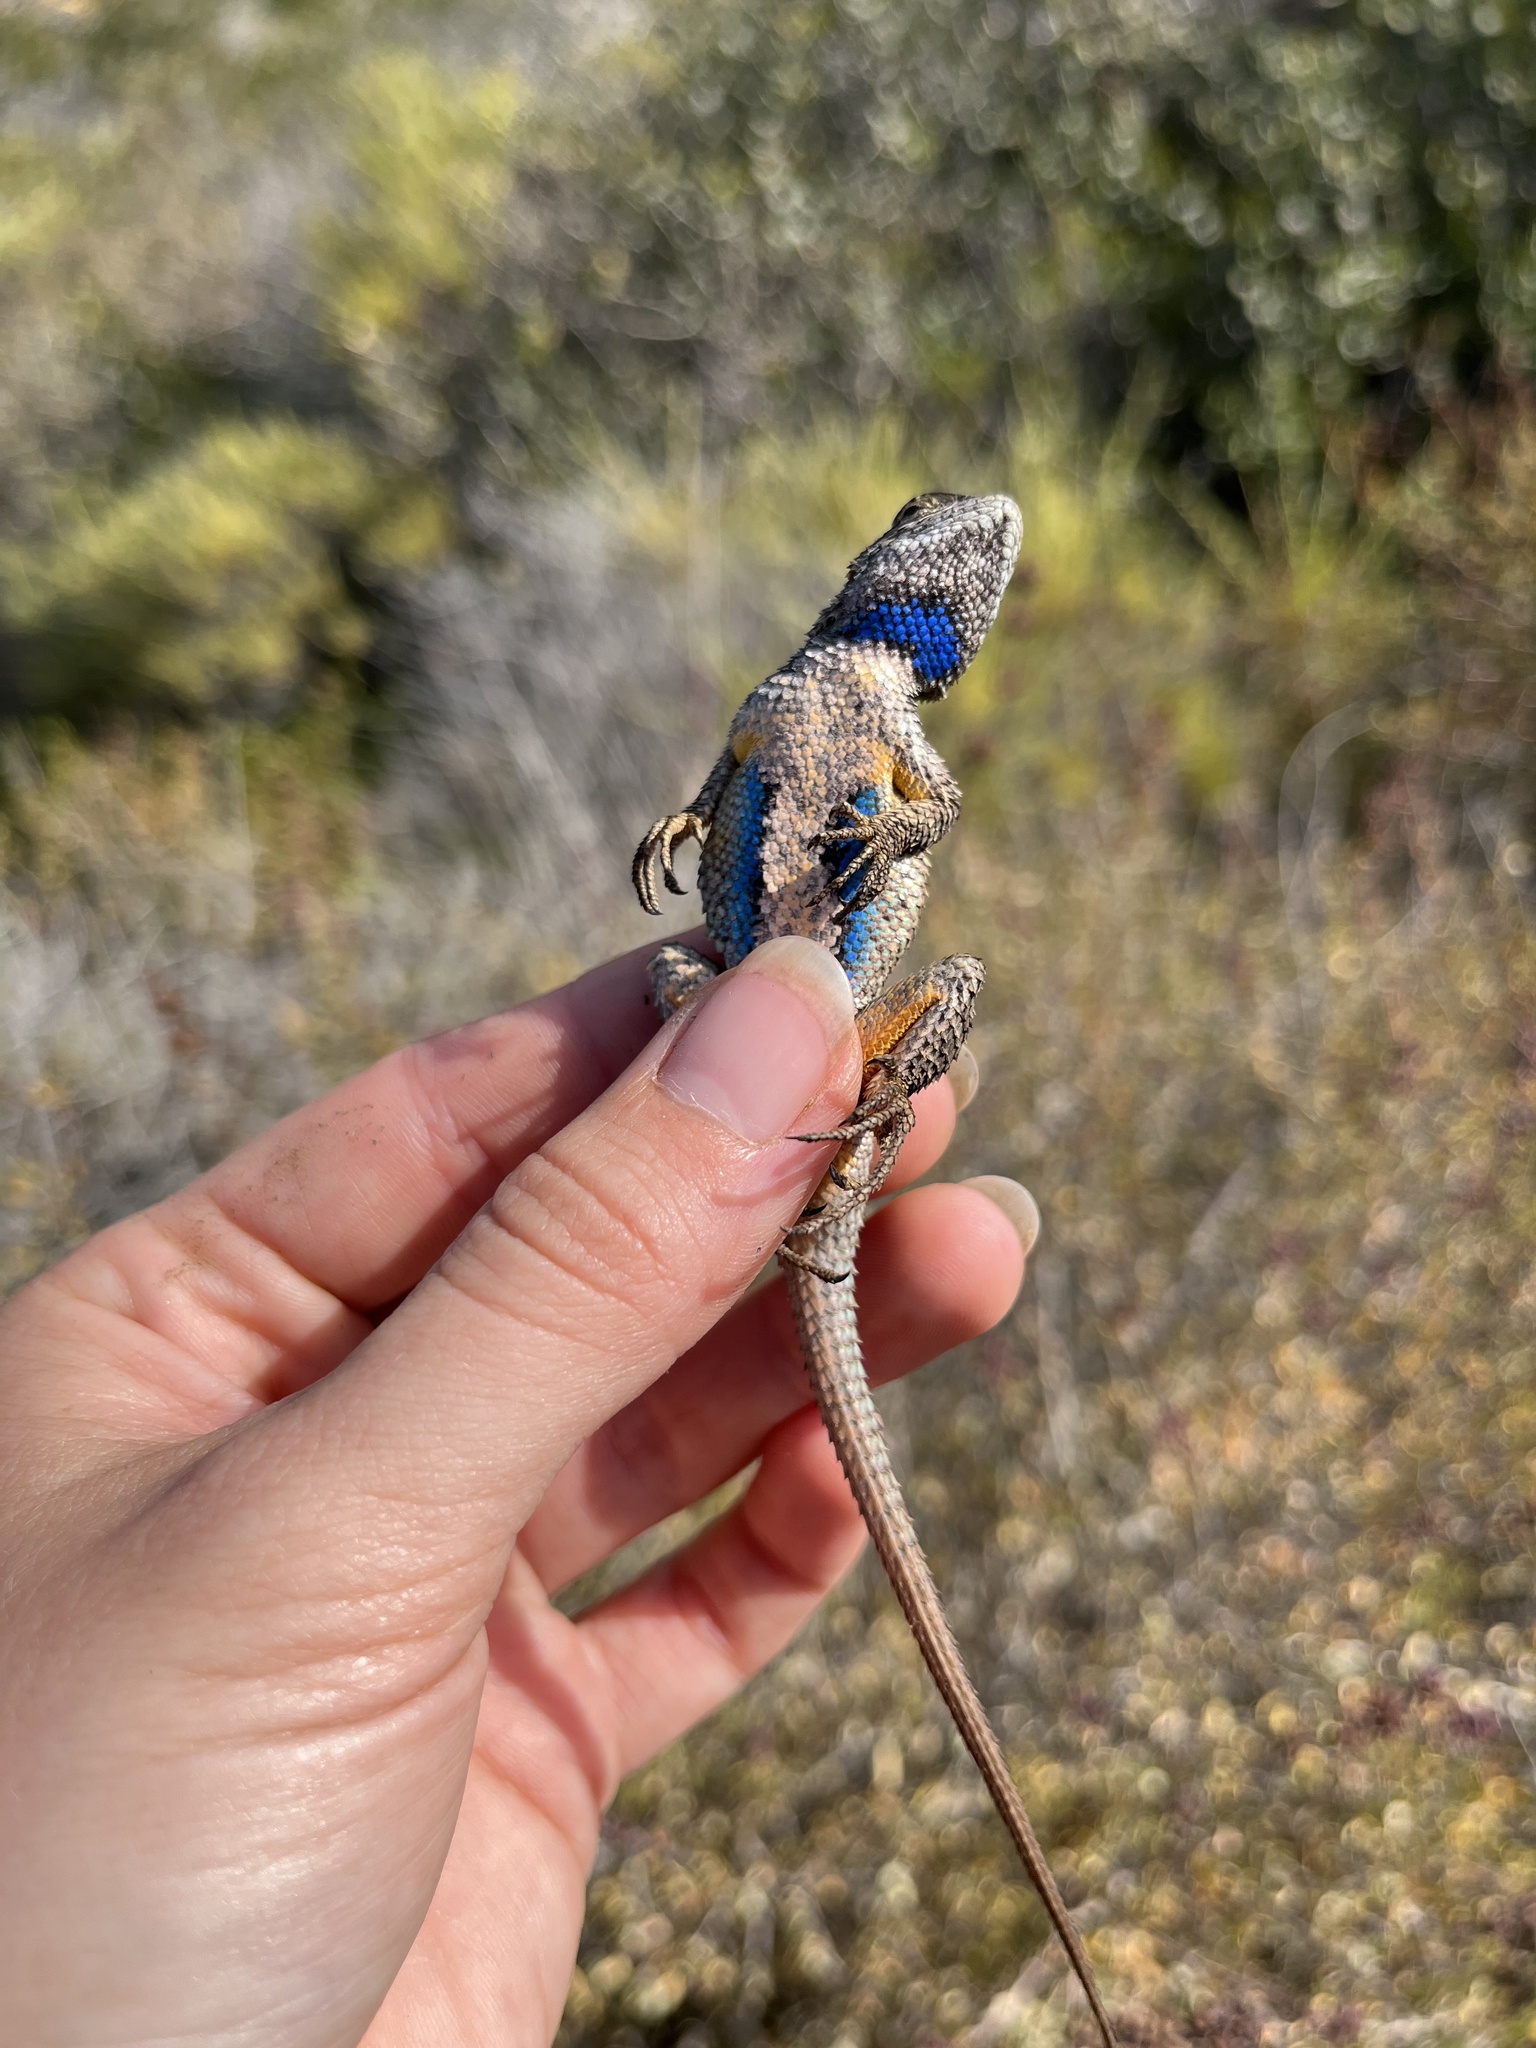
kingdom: Animalia
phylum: Chordata
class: Squamata
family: Phrynosomatidae
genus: Sceloporus
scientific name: Sceloporus occidentalis
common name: Western fence lizard
